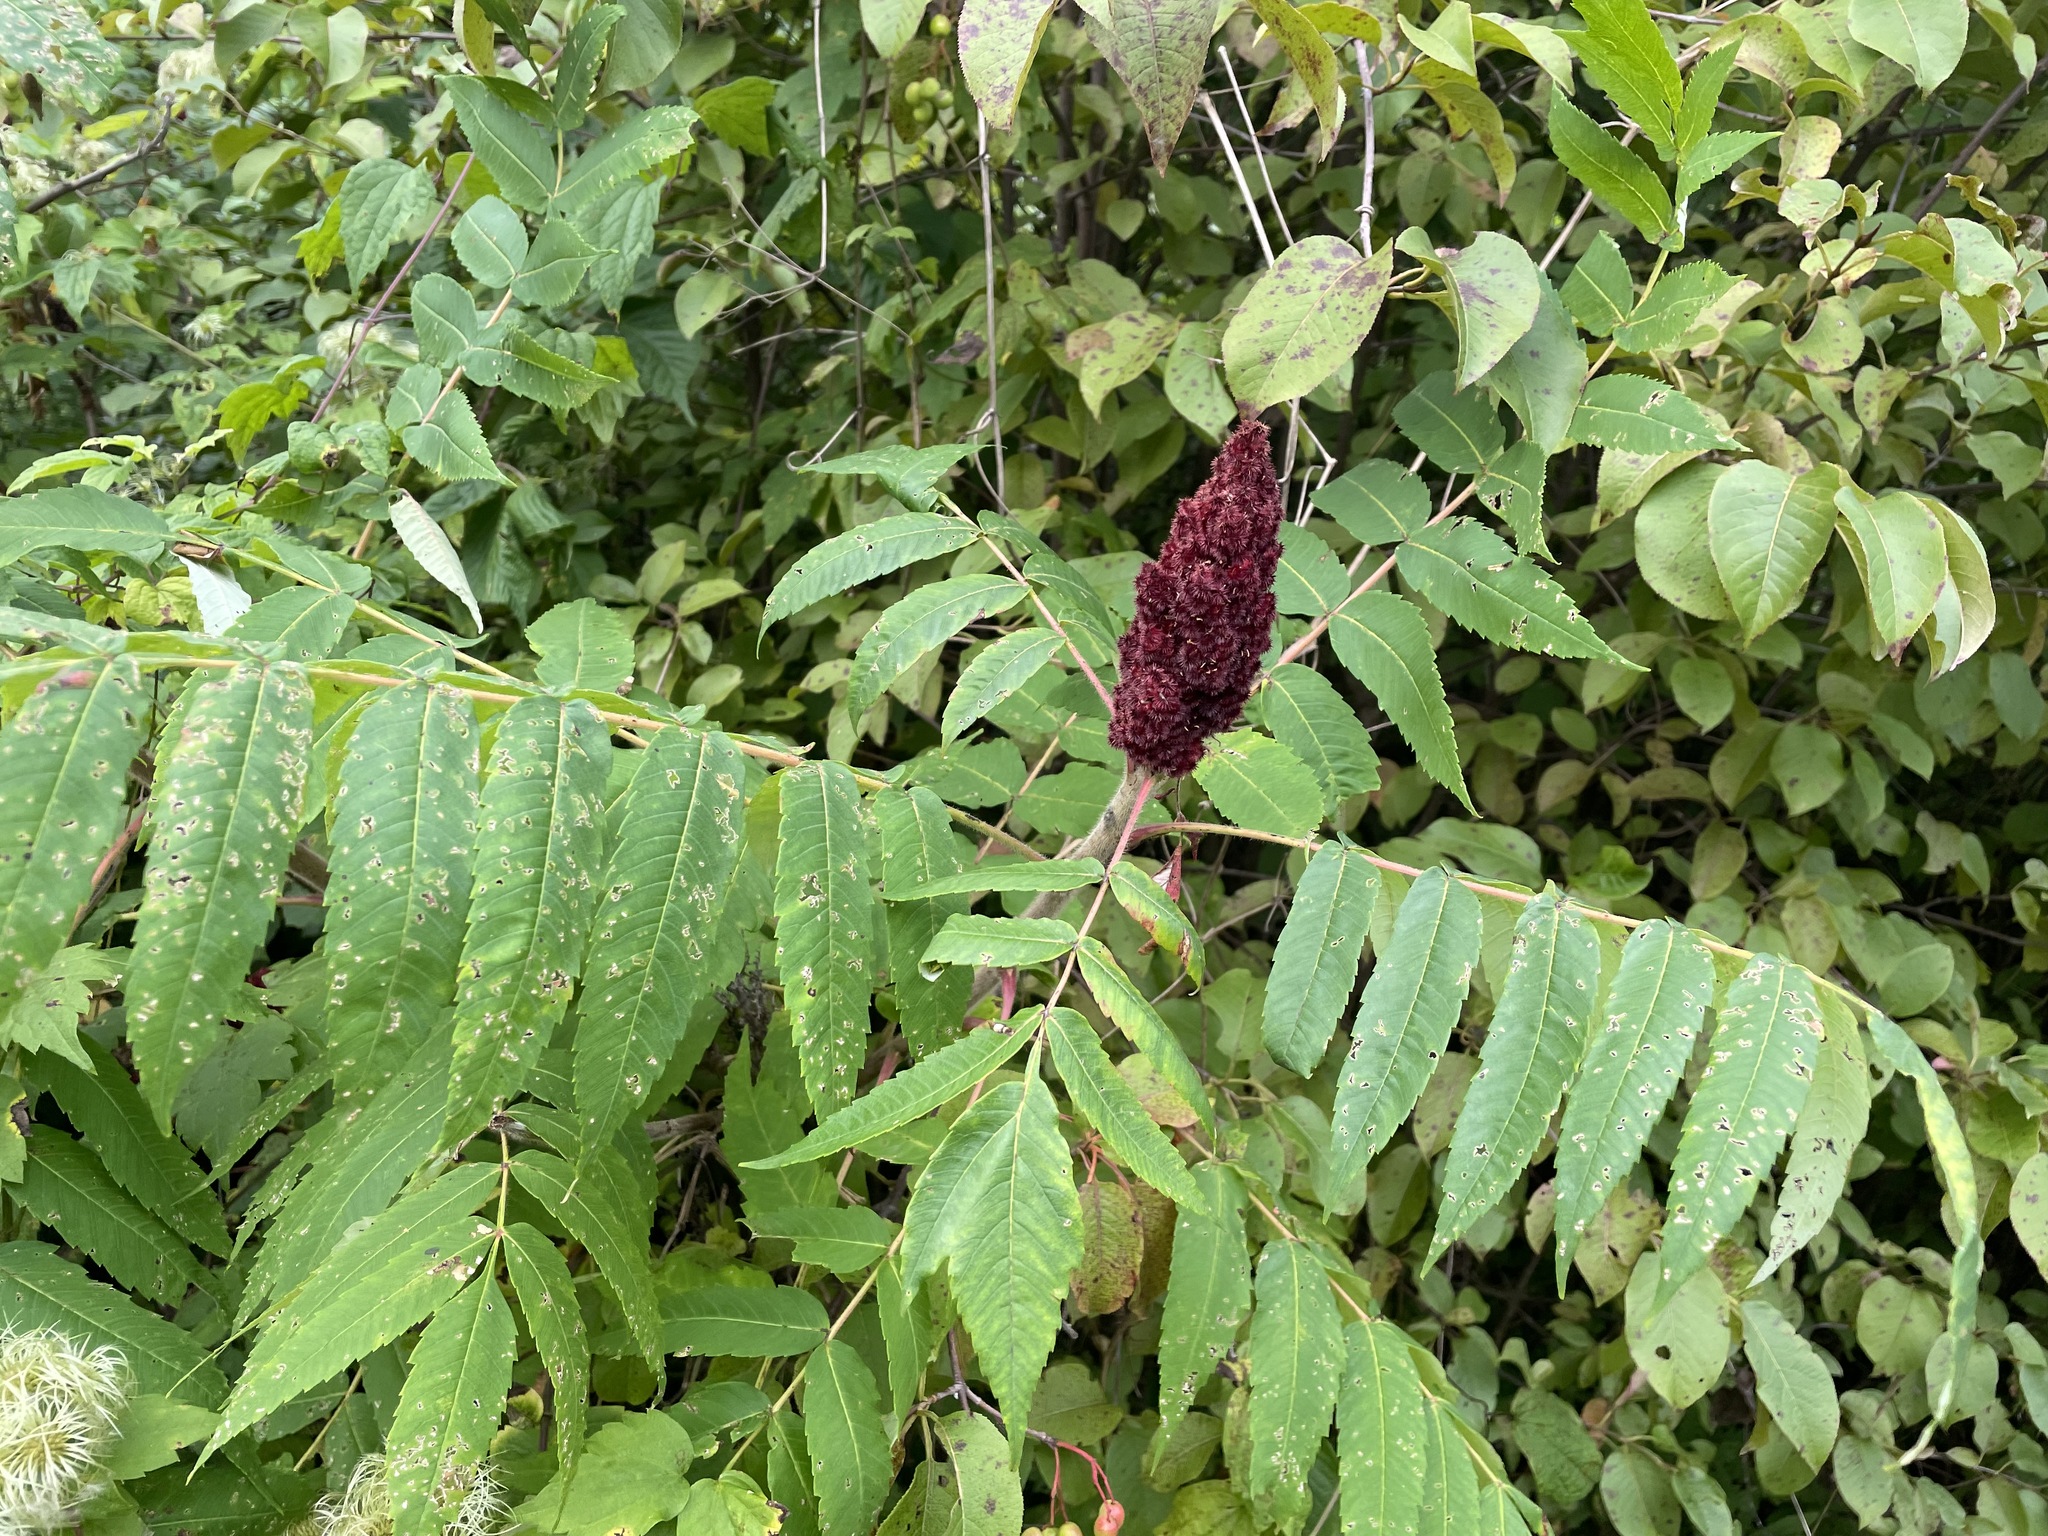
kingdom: Plantae
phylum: Tracheophyta
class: Magnoliopsida
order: Sapindales
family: Anacardiaceae
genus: Rhus
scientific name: Rhus typhina
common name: Staghorn sumac
